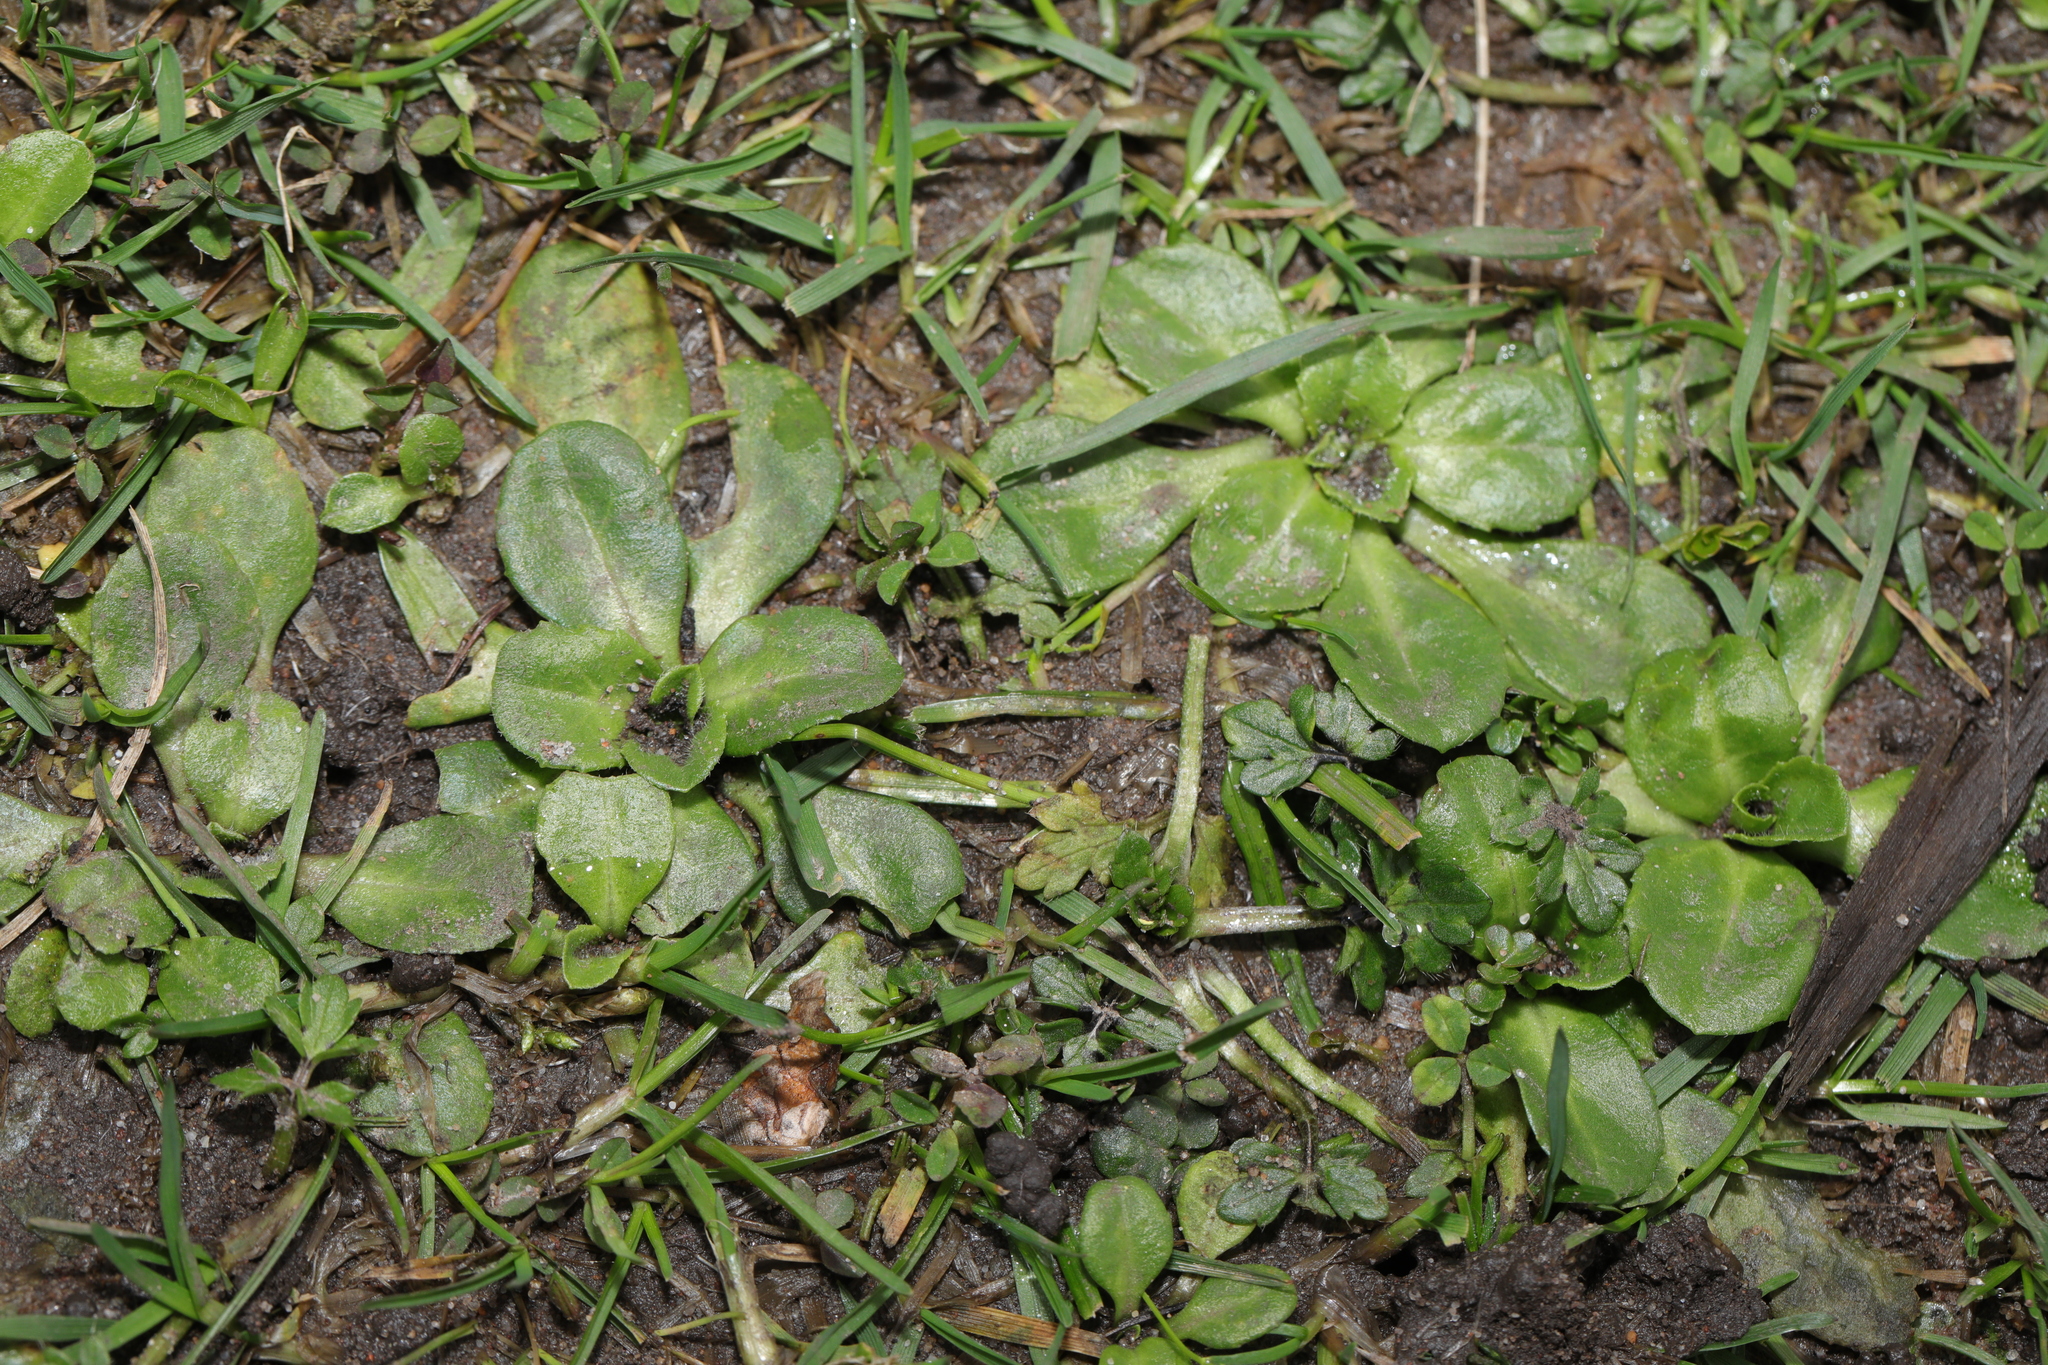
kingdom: Plantae
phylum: Tracheophyta
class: Magnoliopsida
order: Asterales
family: Asteraceae
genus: Bellis
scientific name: Bellis perennis
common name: Lawndaisy
